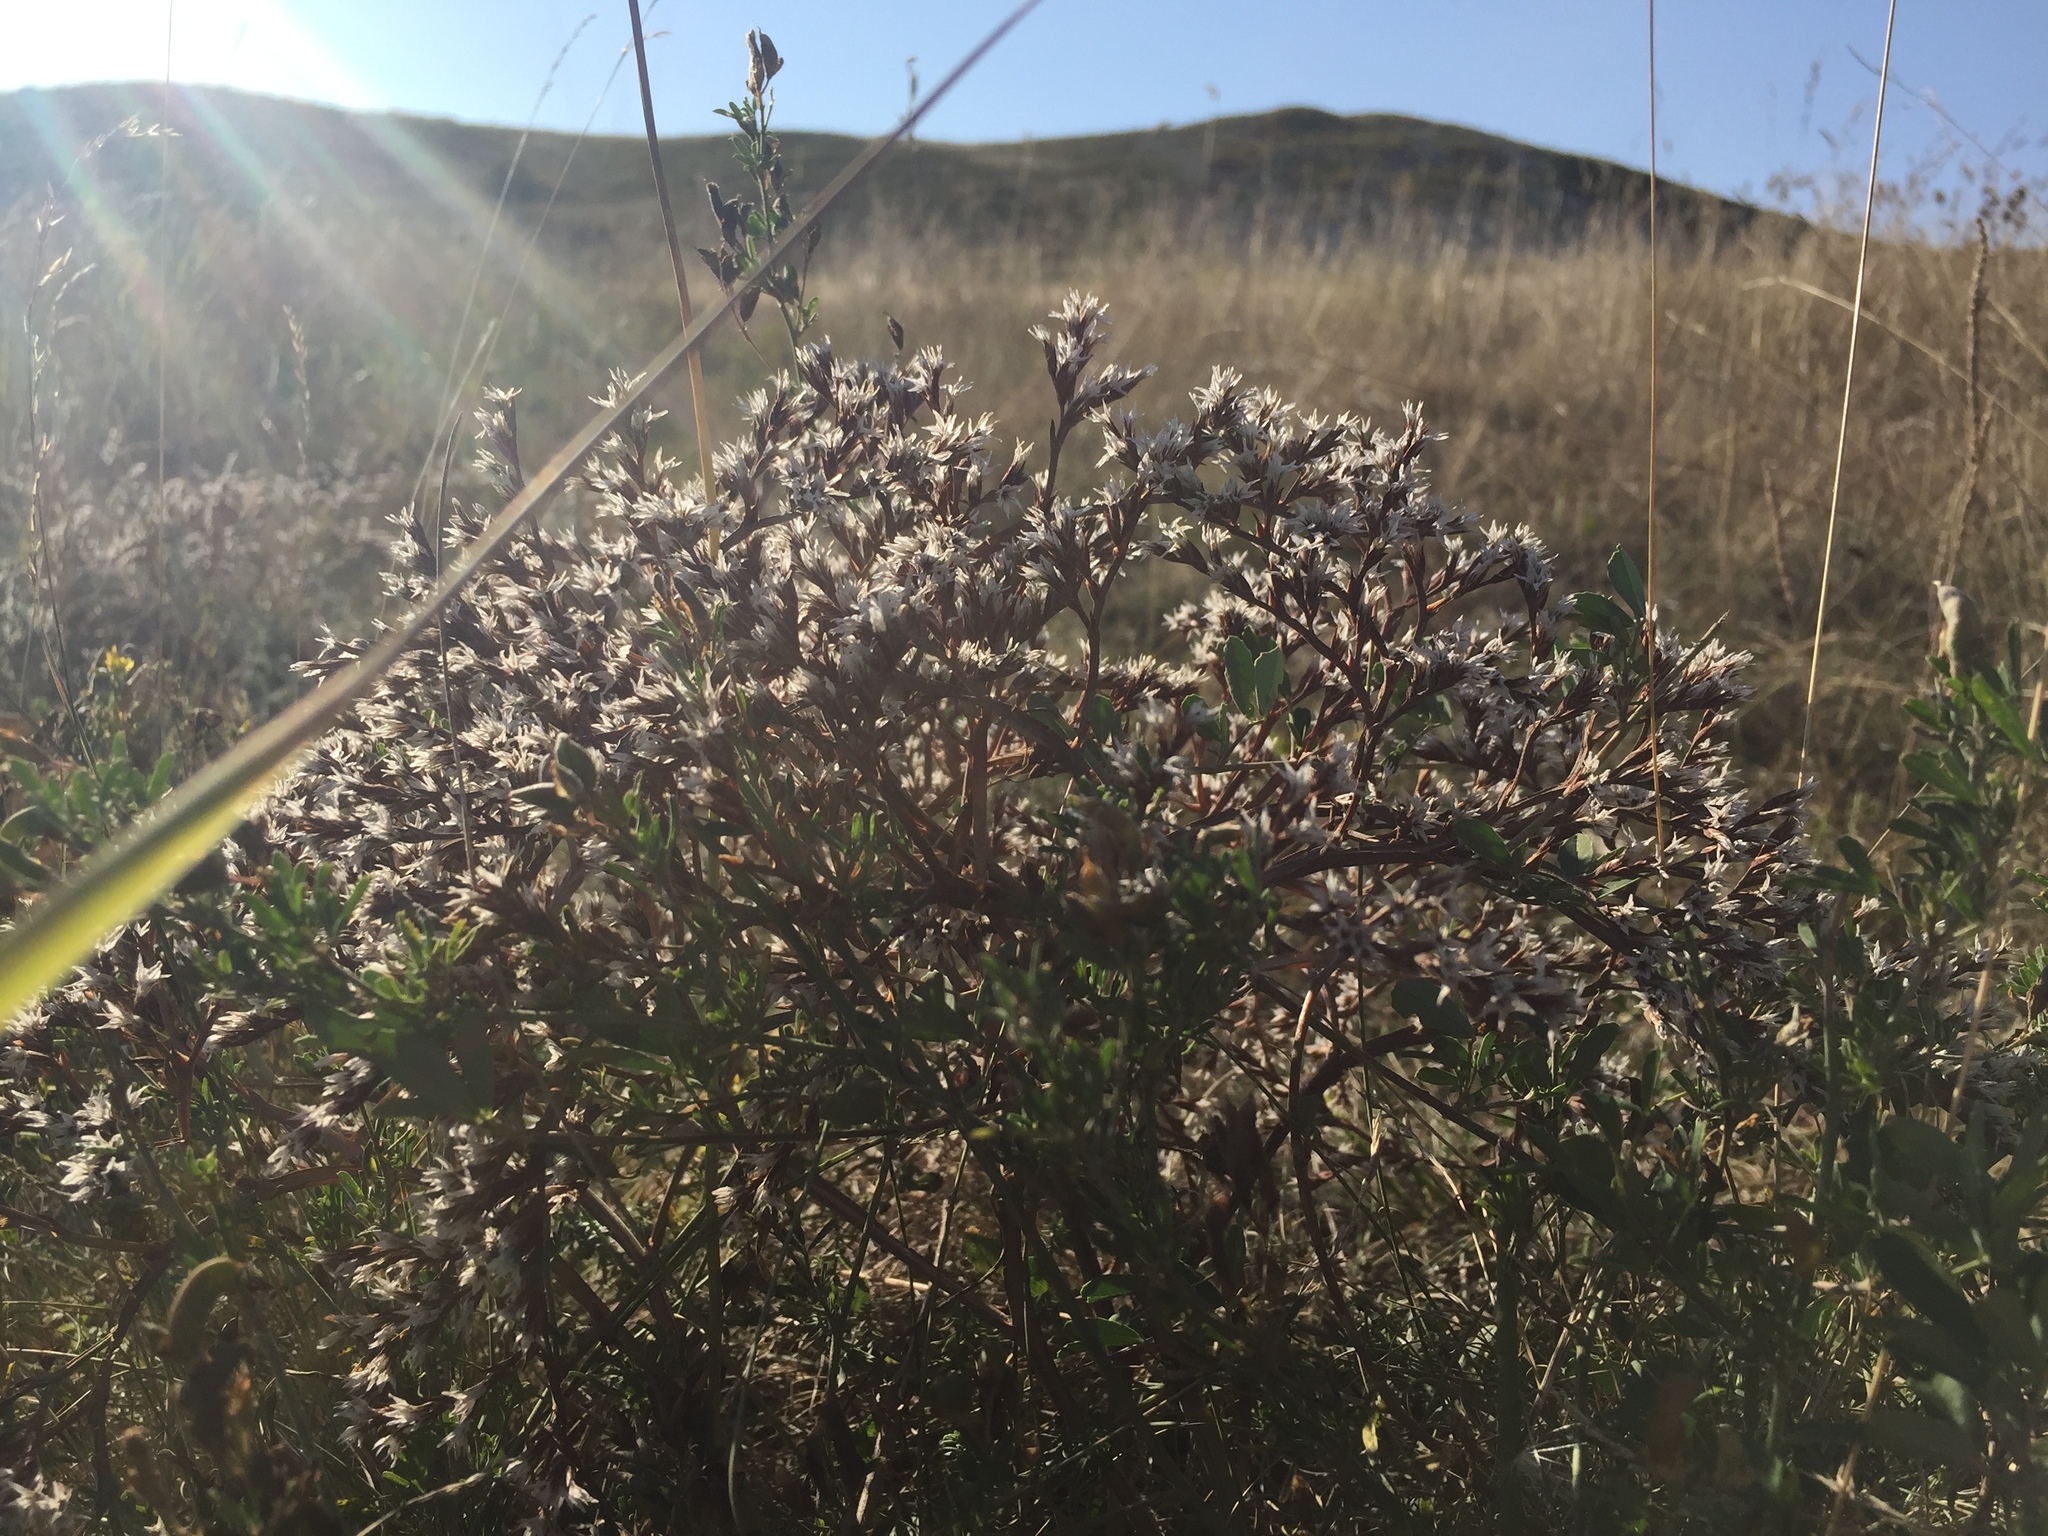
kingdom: Plantae
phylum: Tracheophyta
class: Magnoliopsida
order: Caryophyllales
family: Plumbaginaceae
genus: Goniolimon
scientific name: Goniolimon tataricum
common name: Statice
